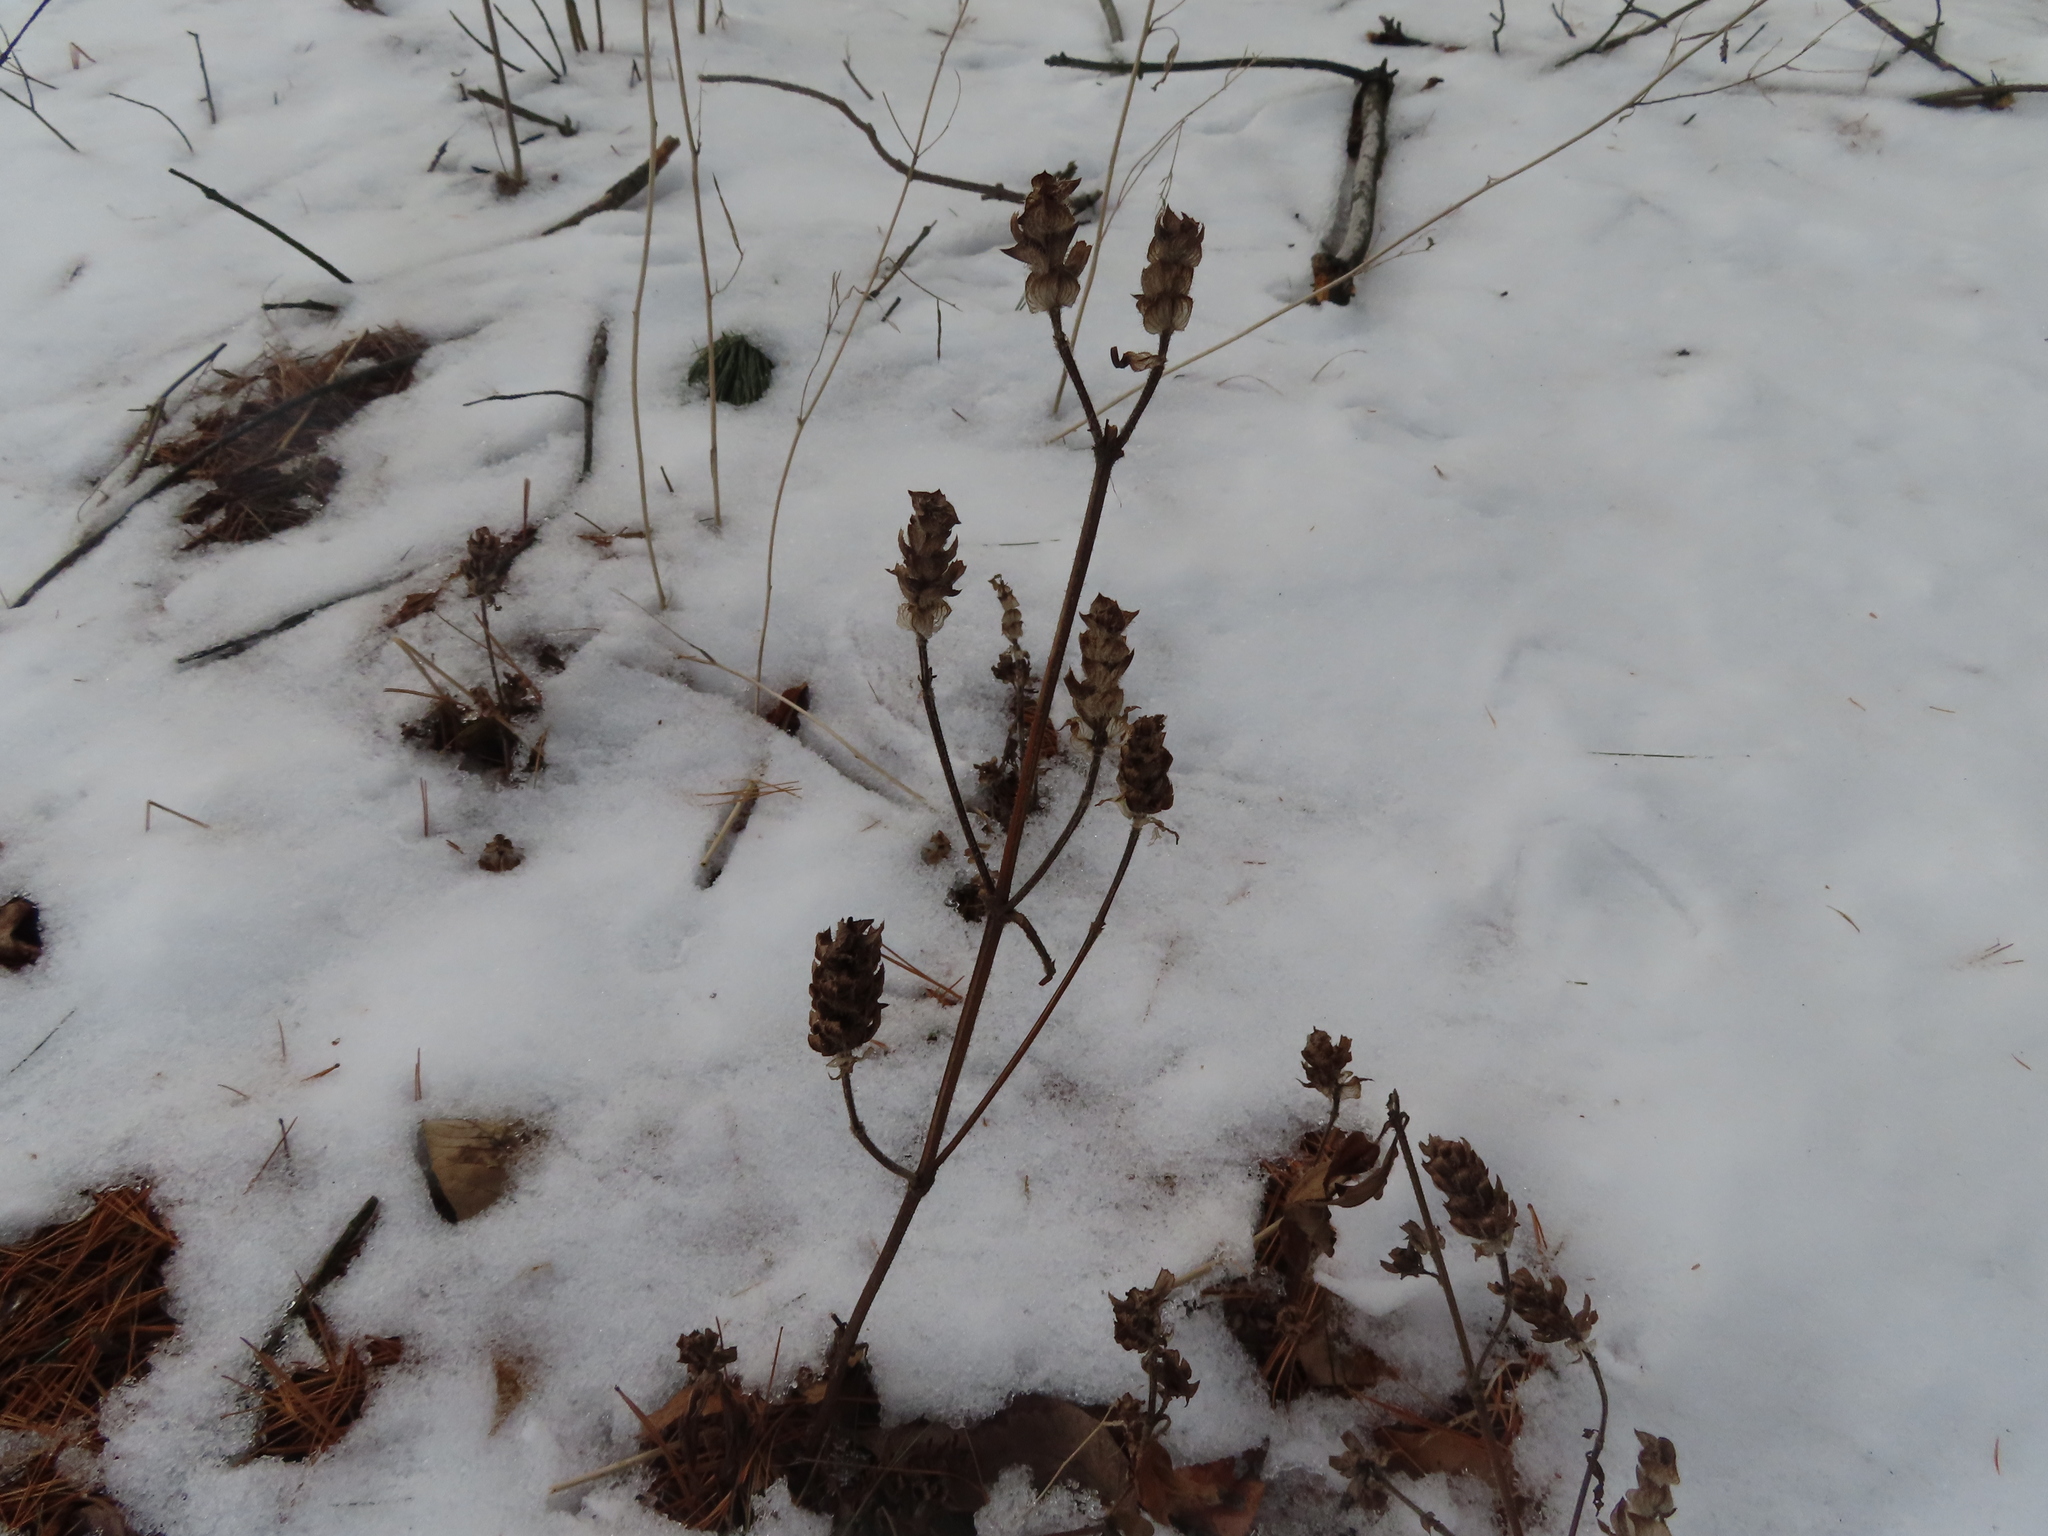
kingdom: Plantae
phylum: Tracheophyta
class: Magnoliopsida
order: Lamiales
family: Lamiaceae
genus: Prunella
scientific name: Prunella vulgaris
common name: Heal-all
